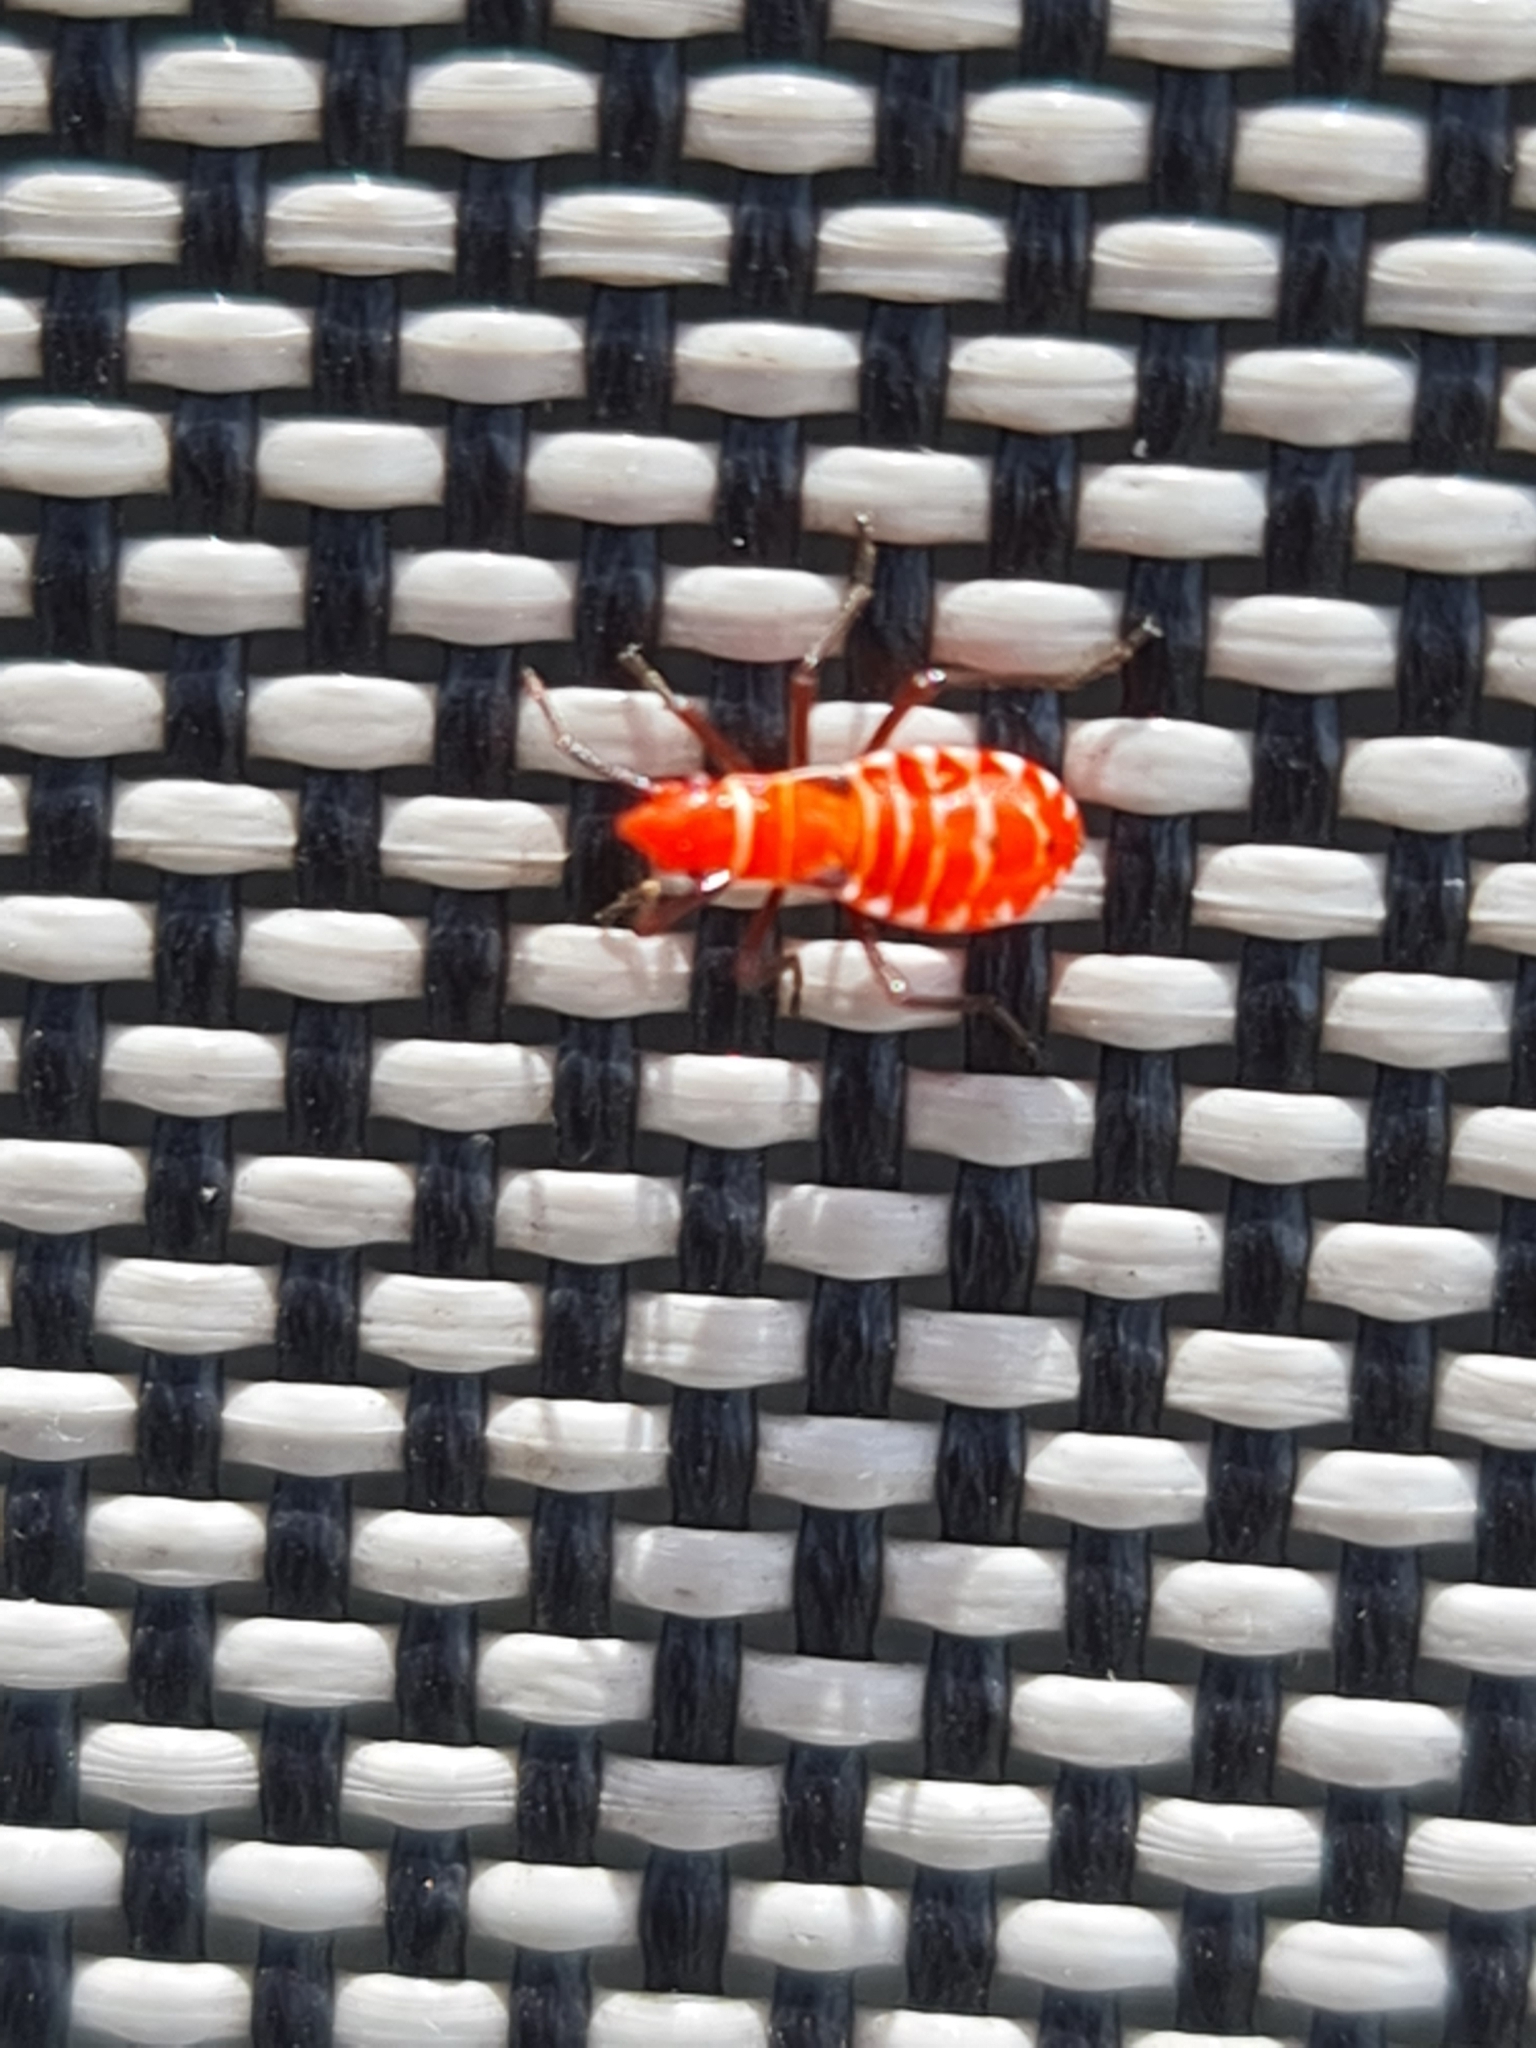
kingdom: Animalia
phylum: Arthropoda
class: Insecta
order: Hemiptera
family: Pyrrhocoridae
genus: Dysdercus
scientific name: Dysdercus andreae
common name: St. andrew's cotton stainer
